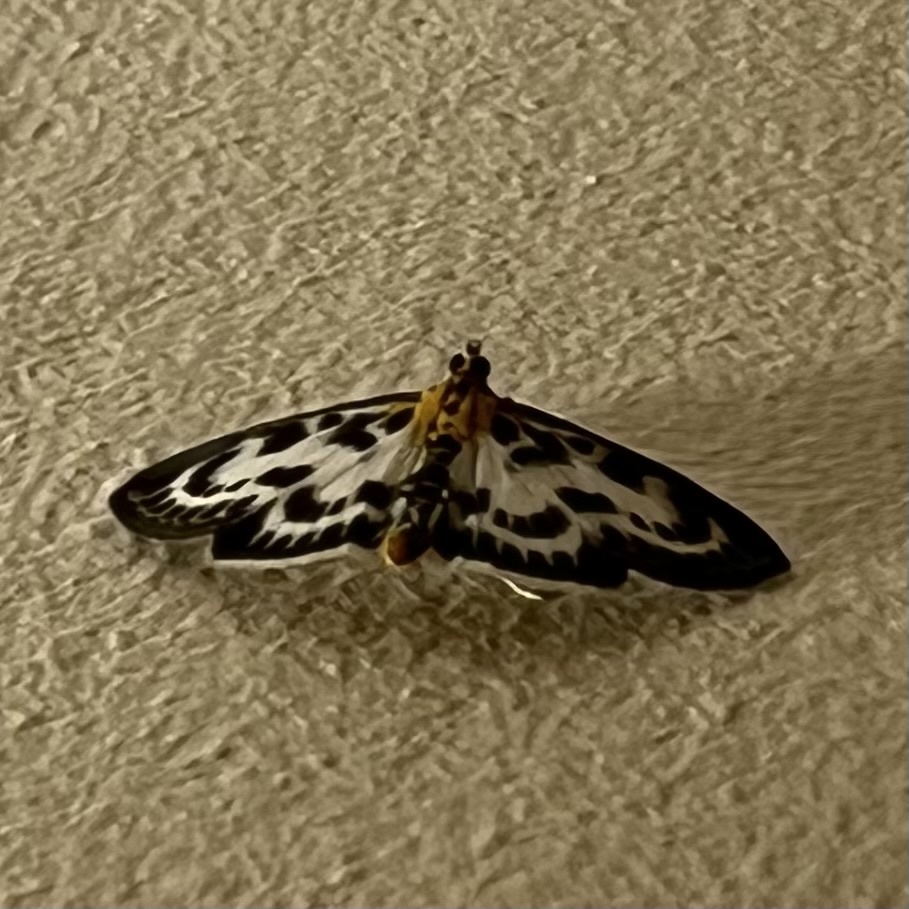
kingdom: Animalia
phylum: Arthropoda
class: Insecta
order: Lepidoptera
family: Crambidae
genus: Anania
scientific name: Anania hortulata
